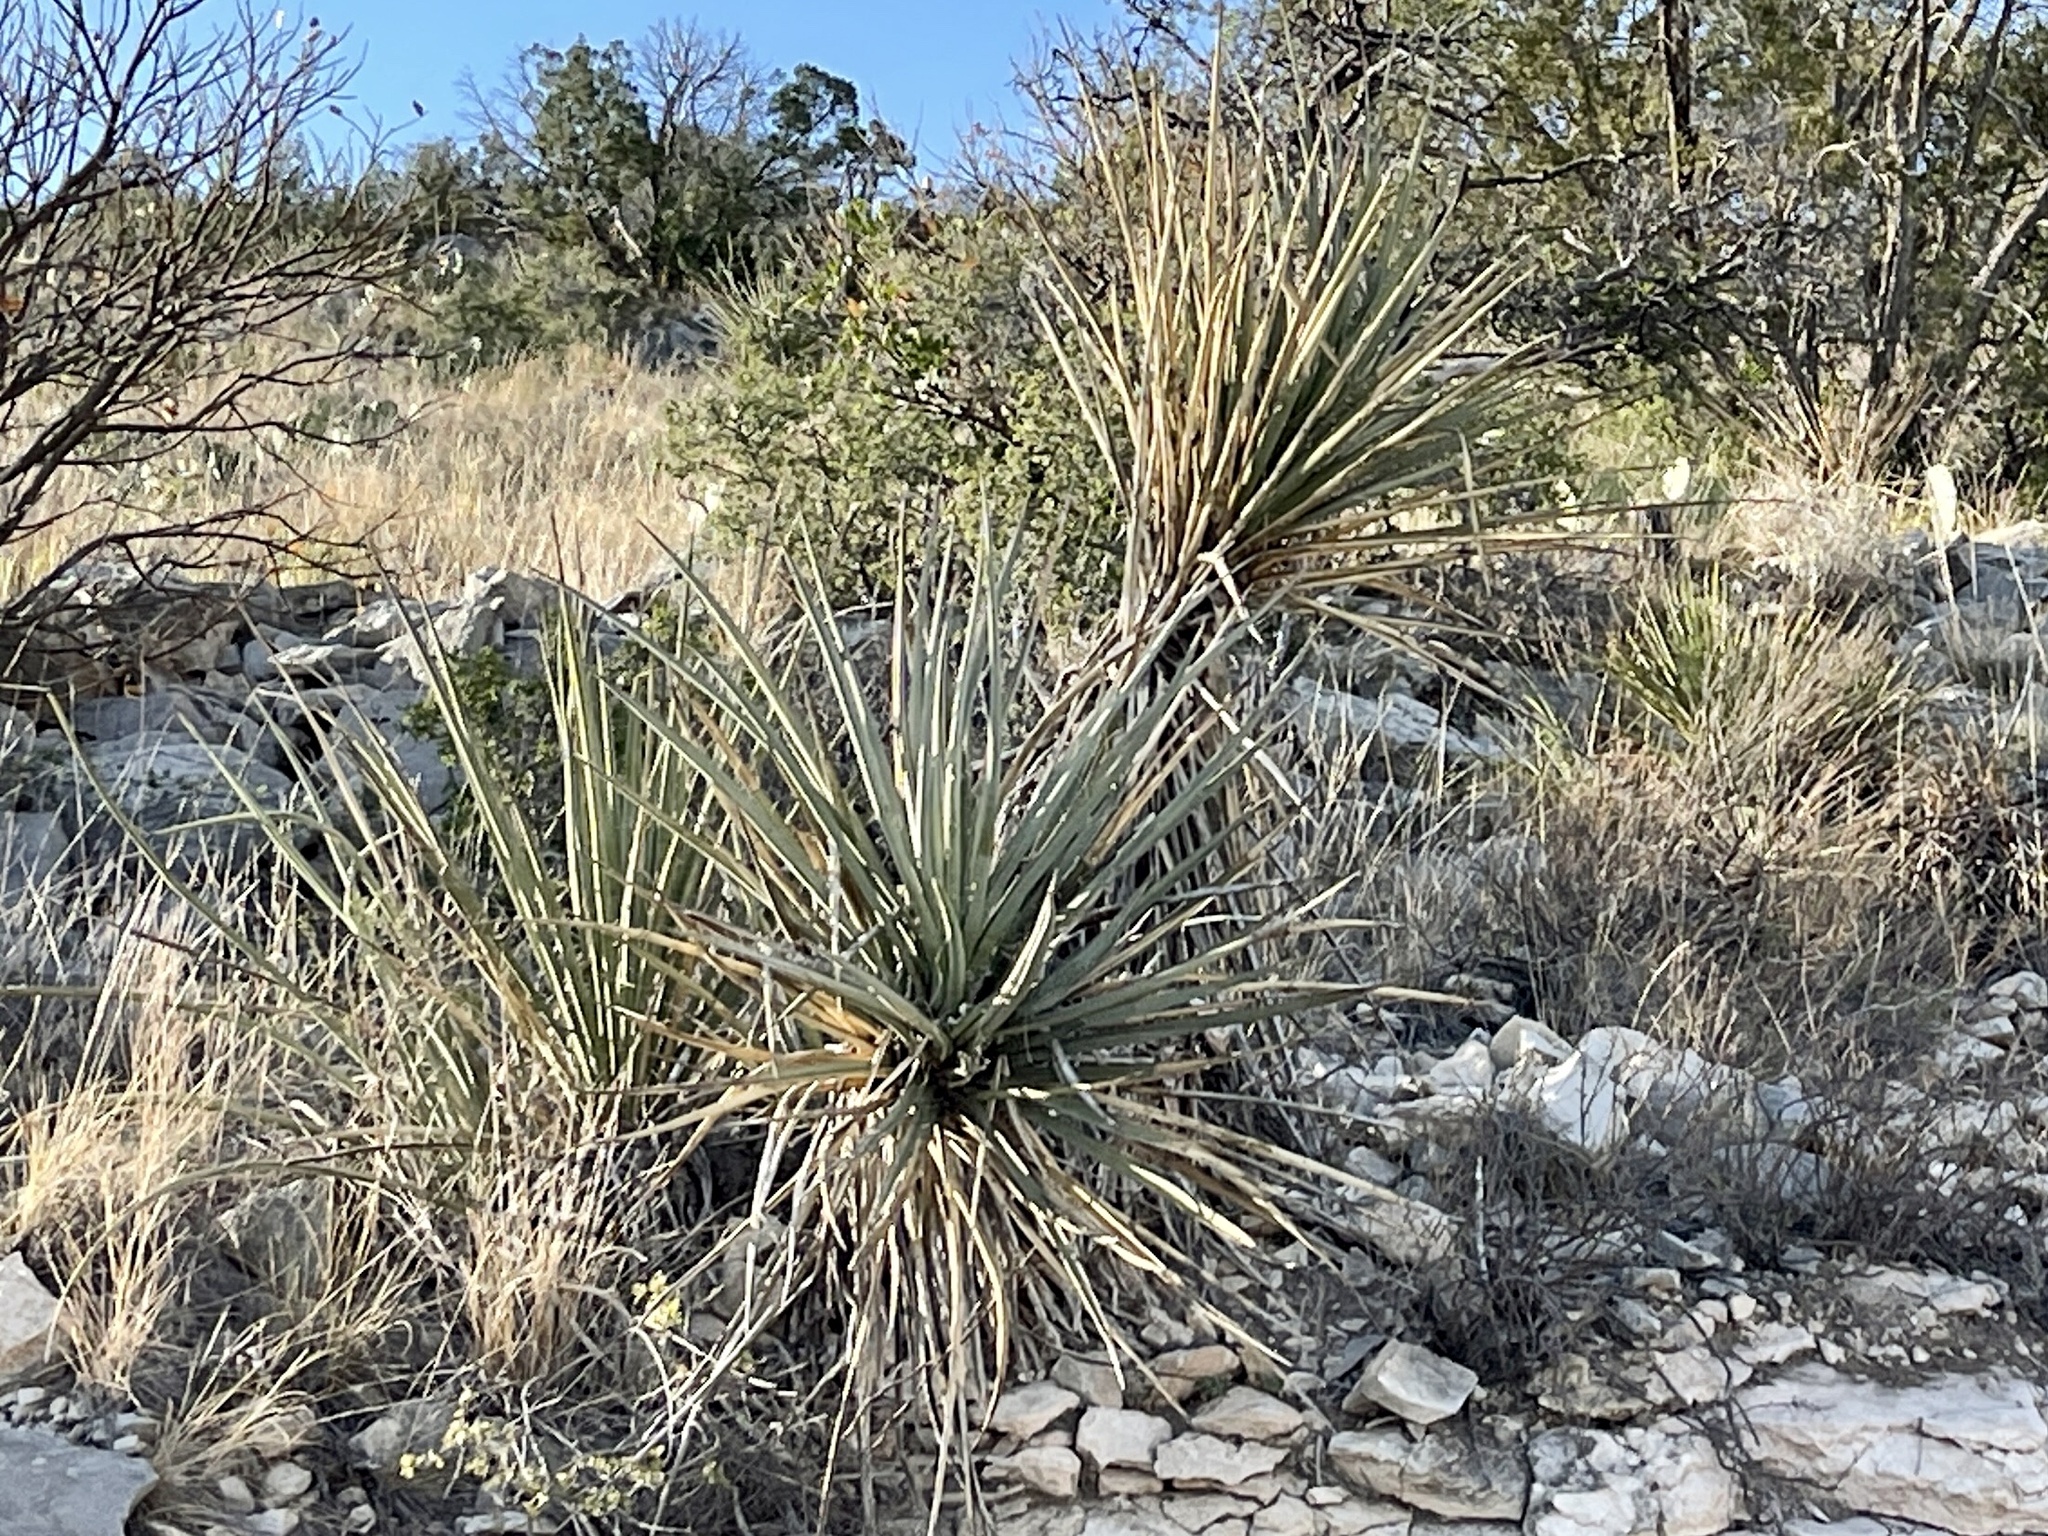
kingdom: Plantae
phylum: Tracheophyta
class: Liliopsida
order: Asparagales
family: Asparagaceae
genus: Yucca
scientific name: Yucca treculiana
